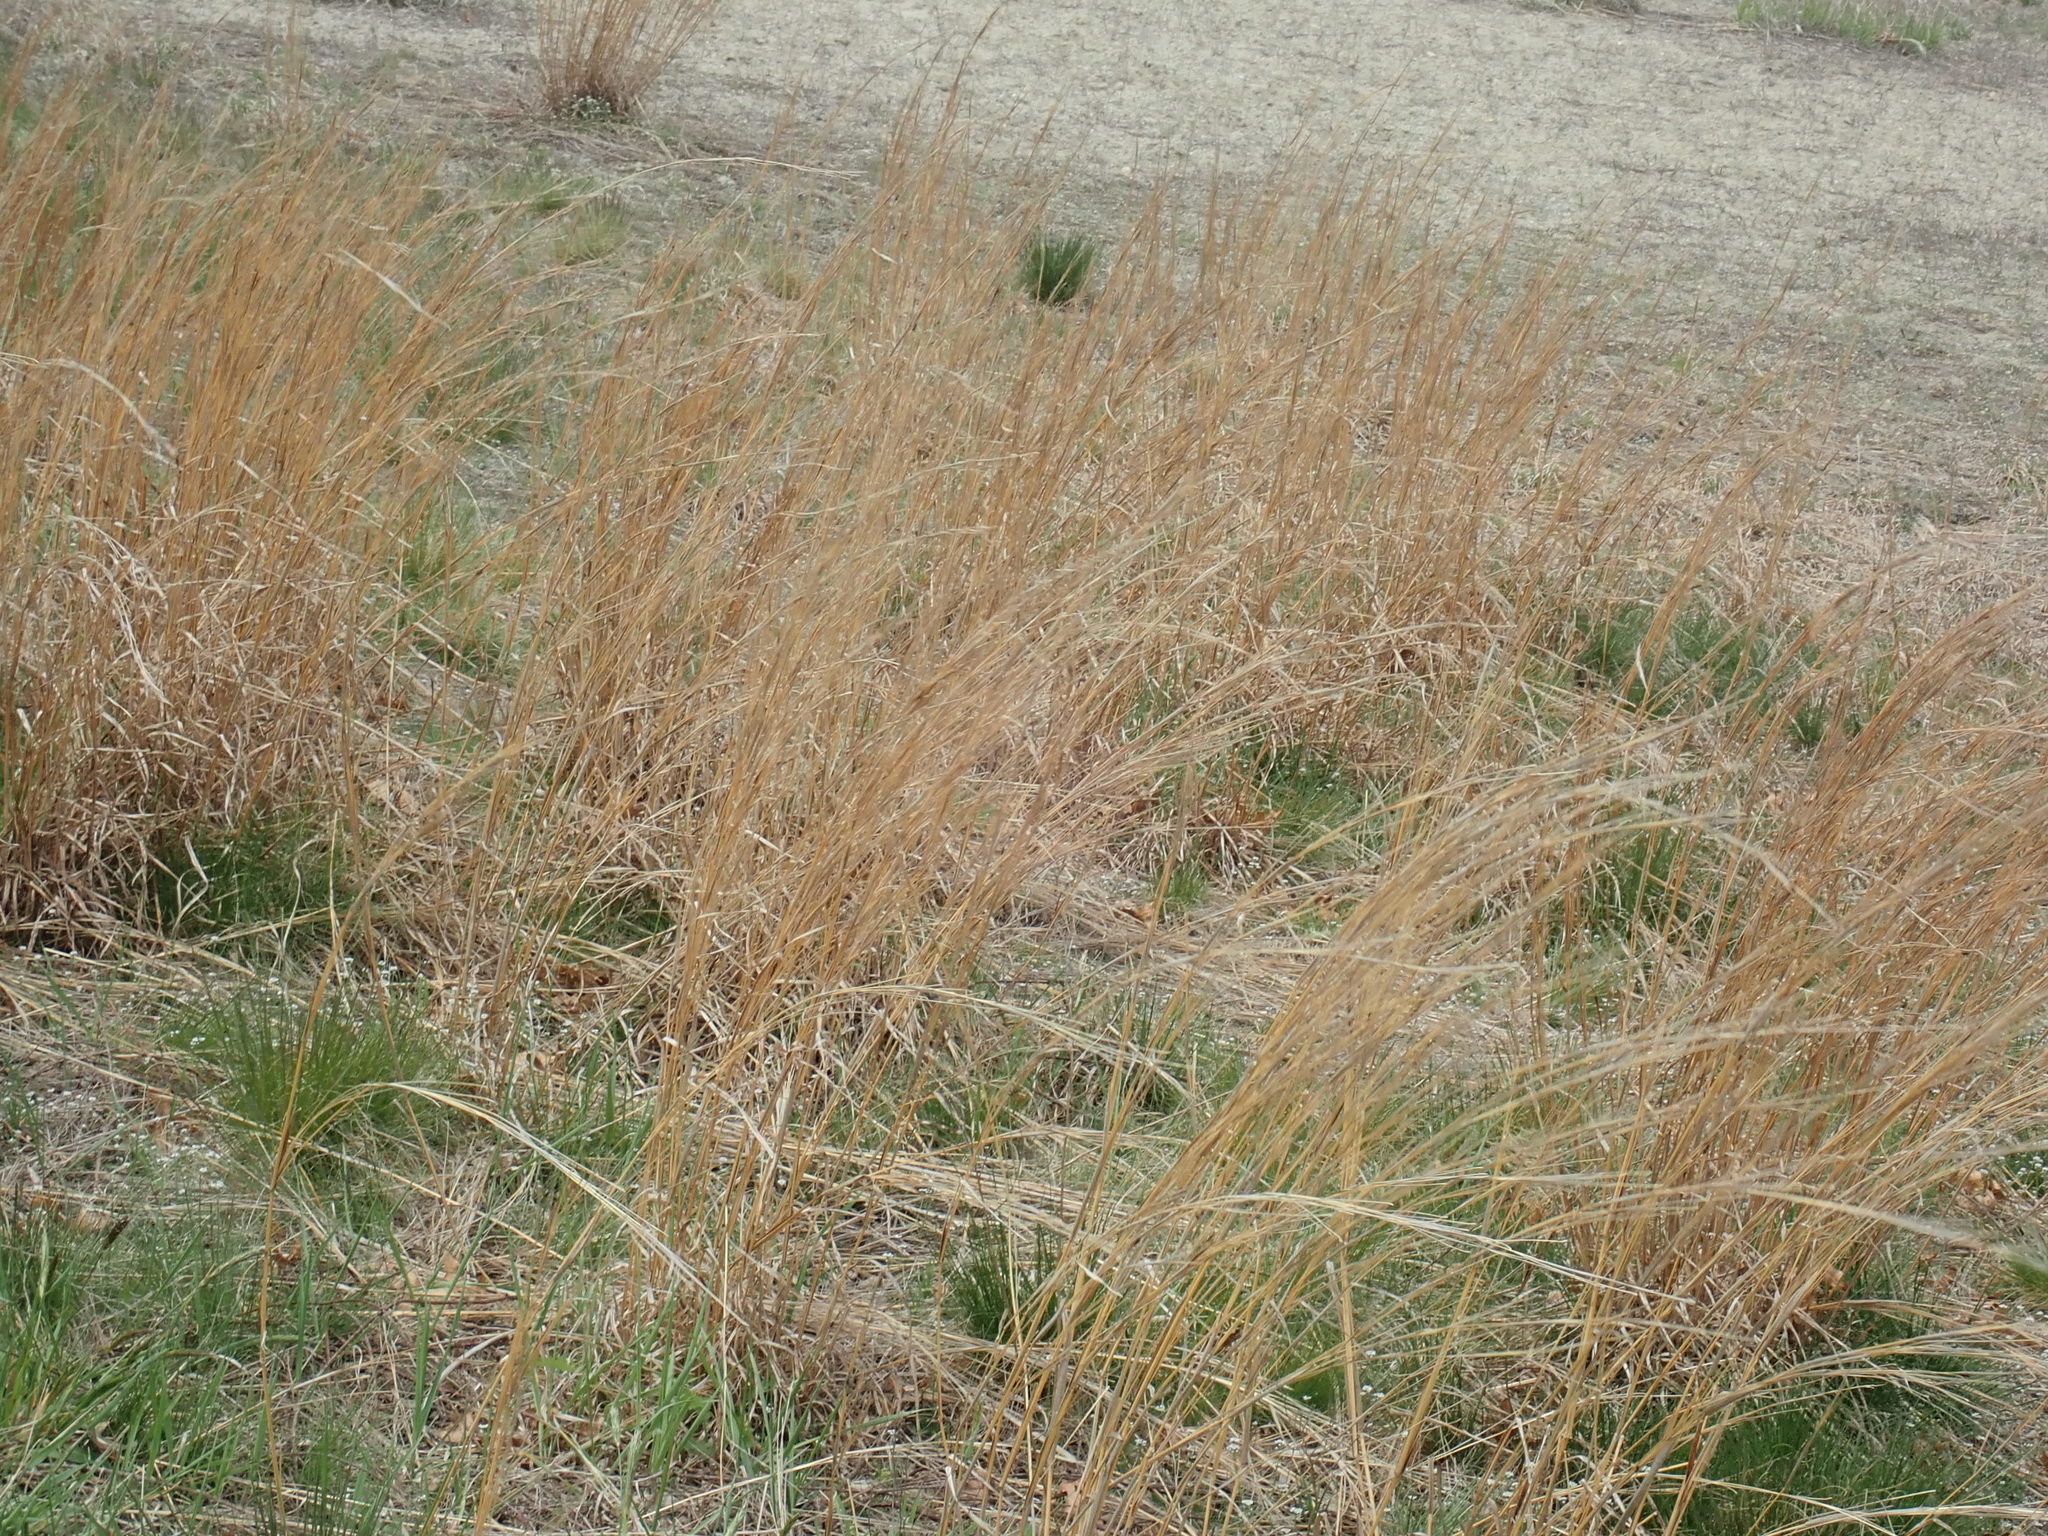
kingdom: Plantae
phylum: Tracheophyta
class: Liliopsida
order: Poales
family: Poaceae
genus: Schizachyrium
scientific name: Schizachyrium scoparium
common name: Little bluestem
